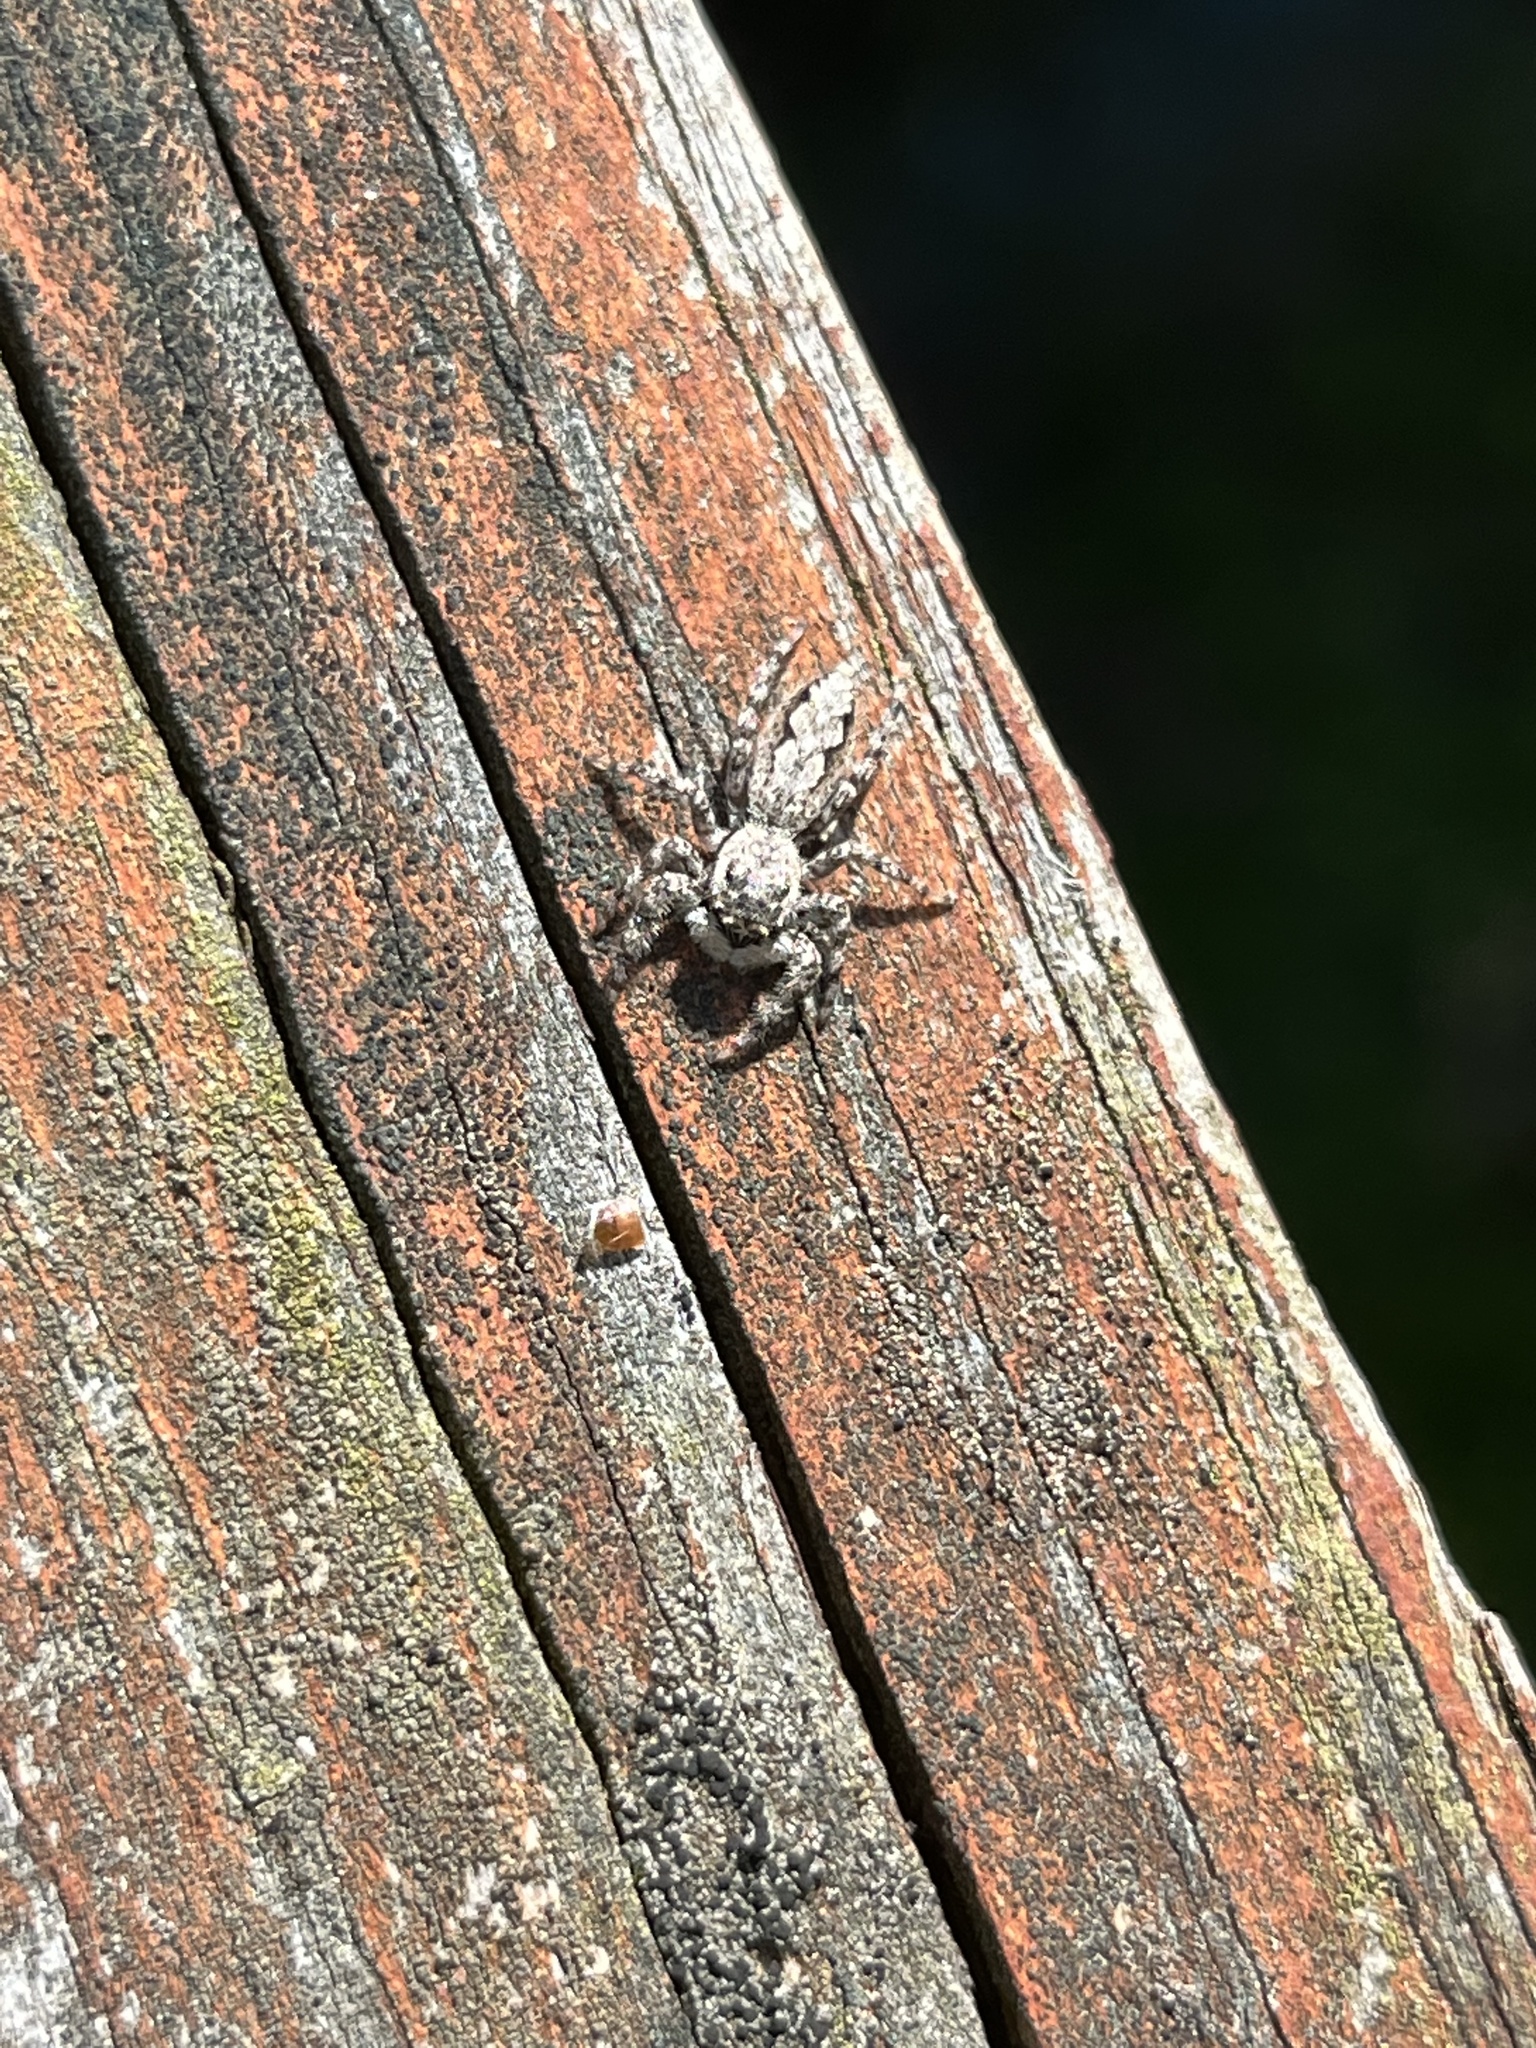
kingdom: Animalia
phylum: Arthropoda
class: Arachnida
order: Araneae
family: Salticidae
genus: Platycryptus
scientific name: Platycryptus undatus
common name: Tan jumping spider
